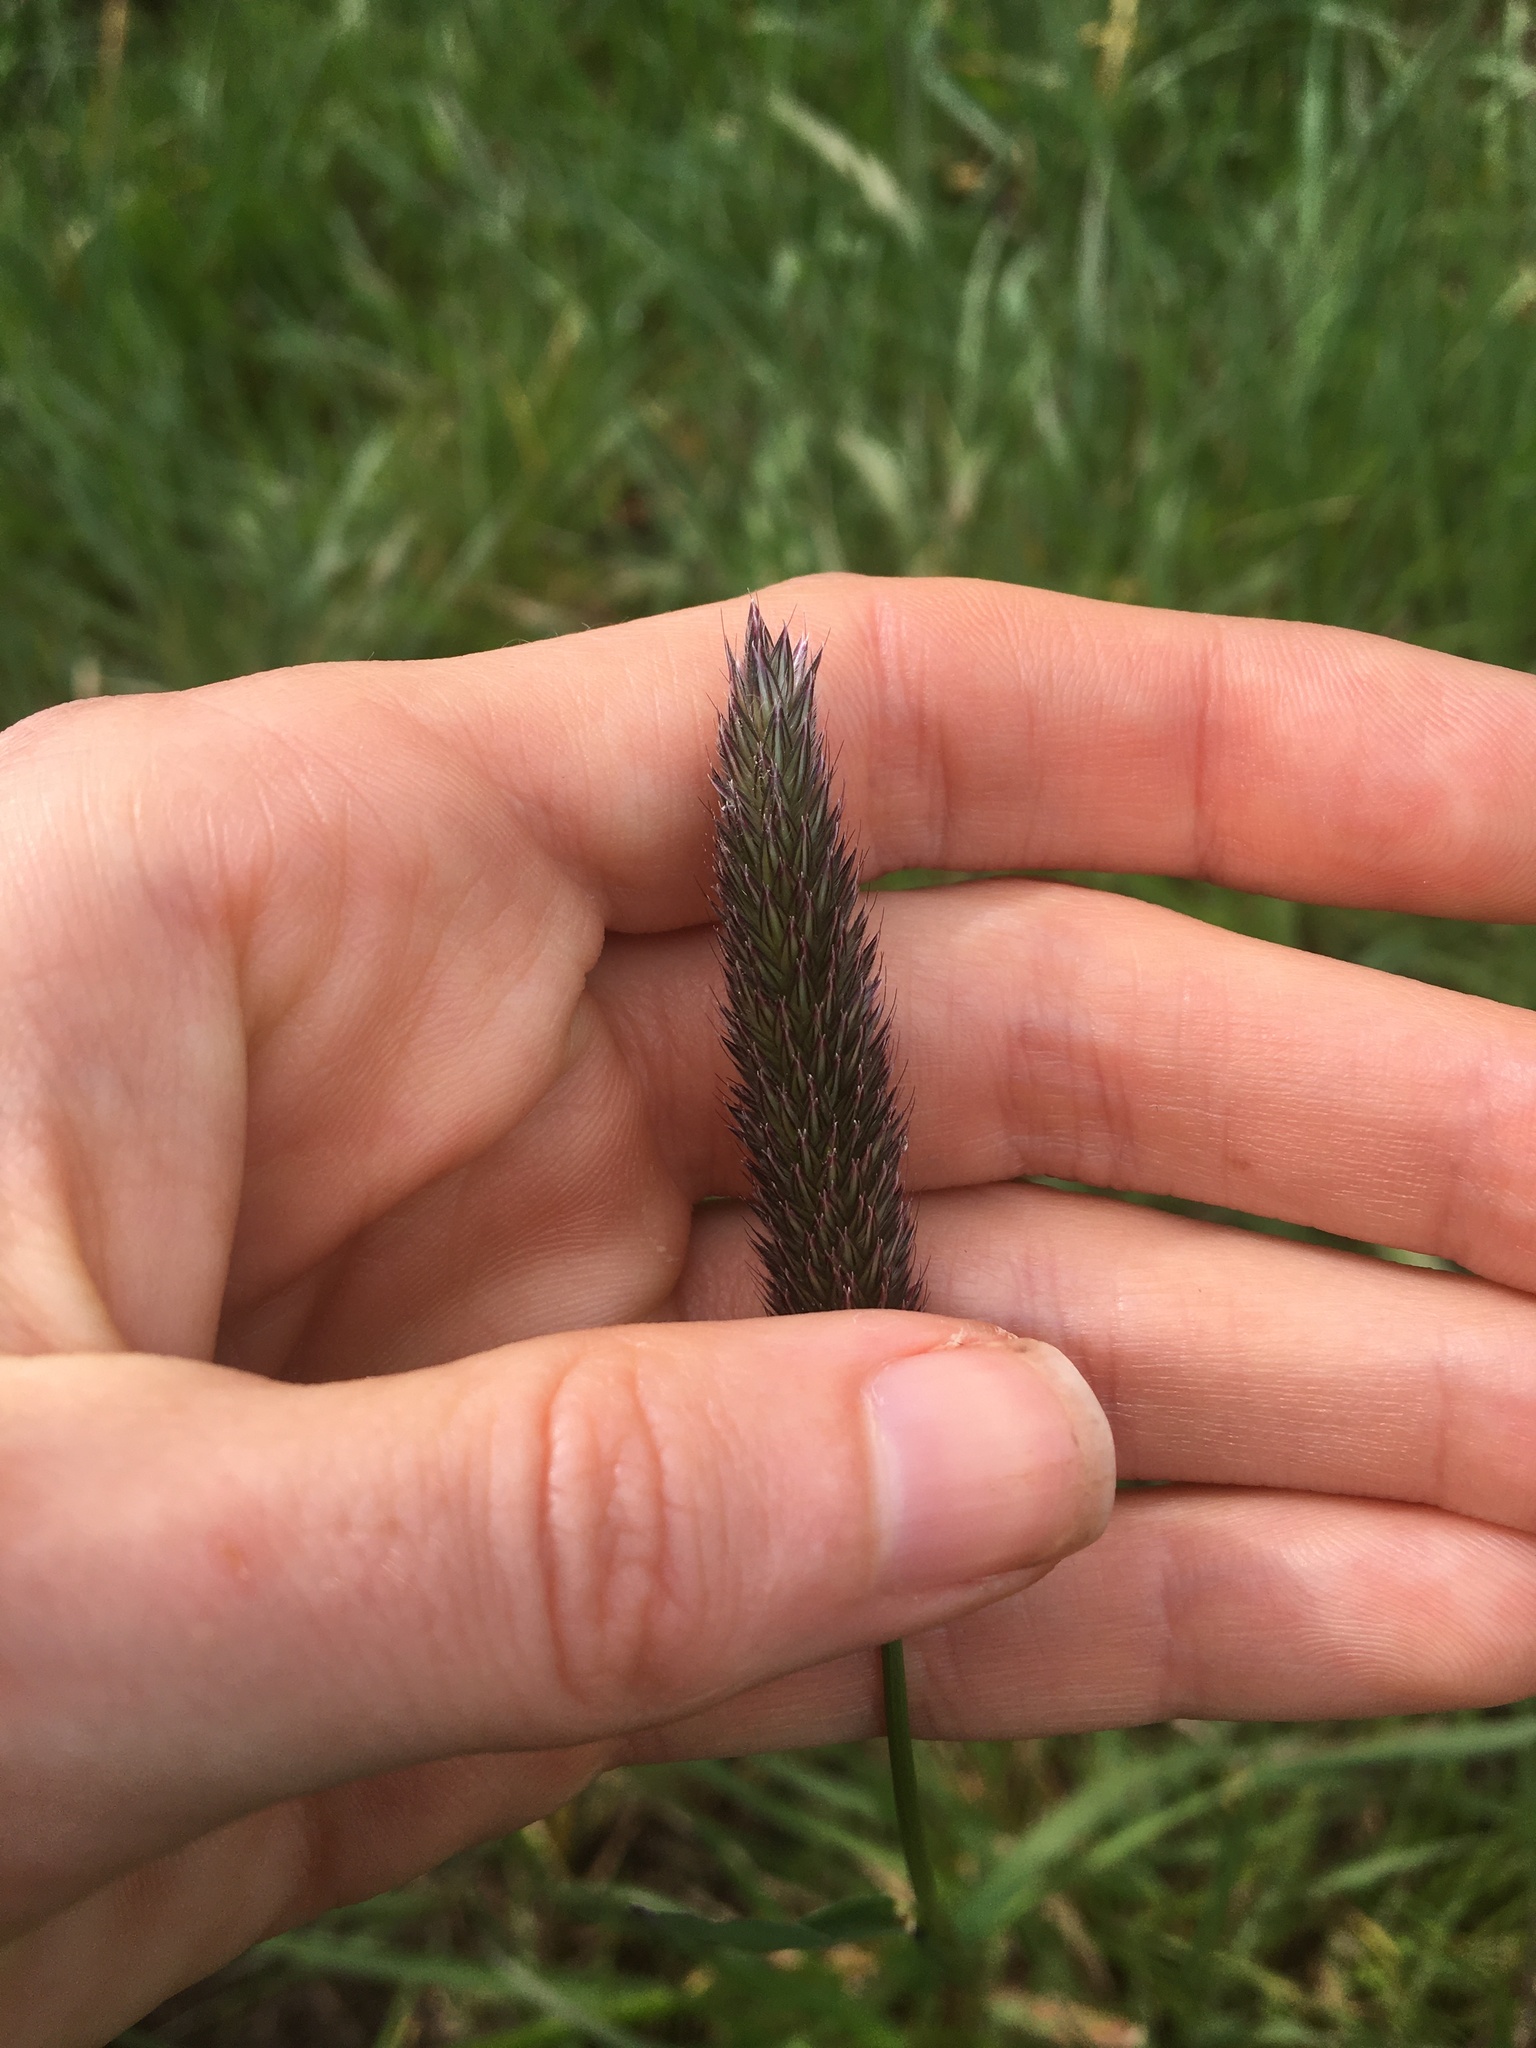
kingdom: Plantae
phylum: Tracheophyta
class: Liliopsida
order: Poales
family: Poaceae
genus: Alopecurus
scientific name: Alopecurus pratensis
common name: Meadow foxtail
